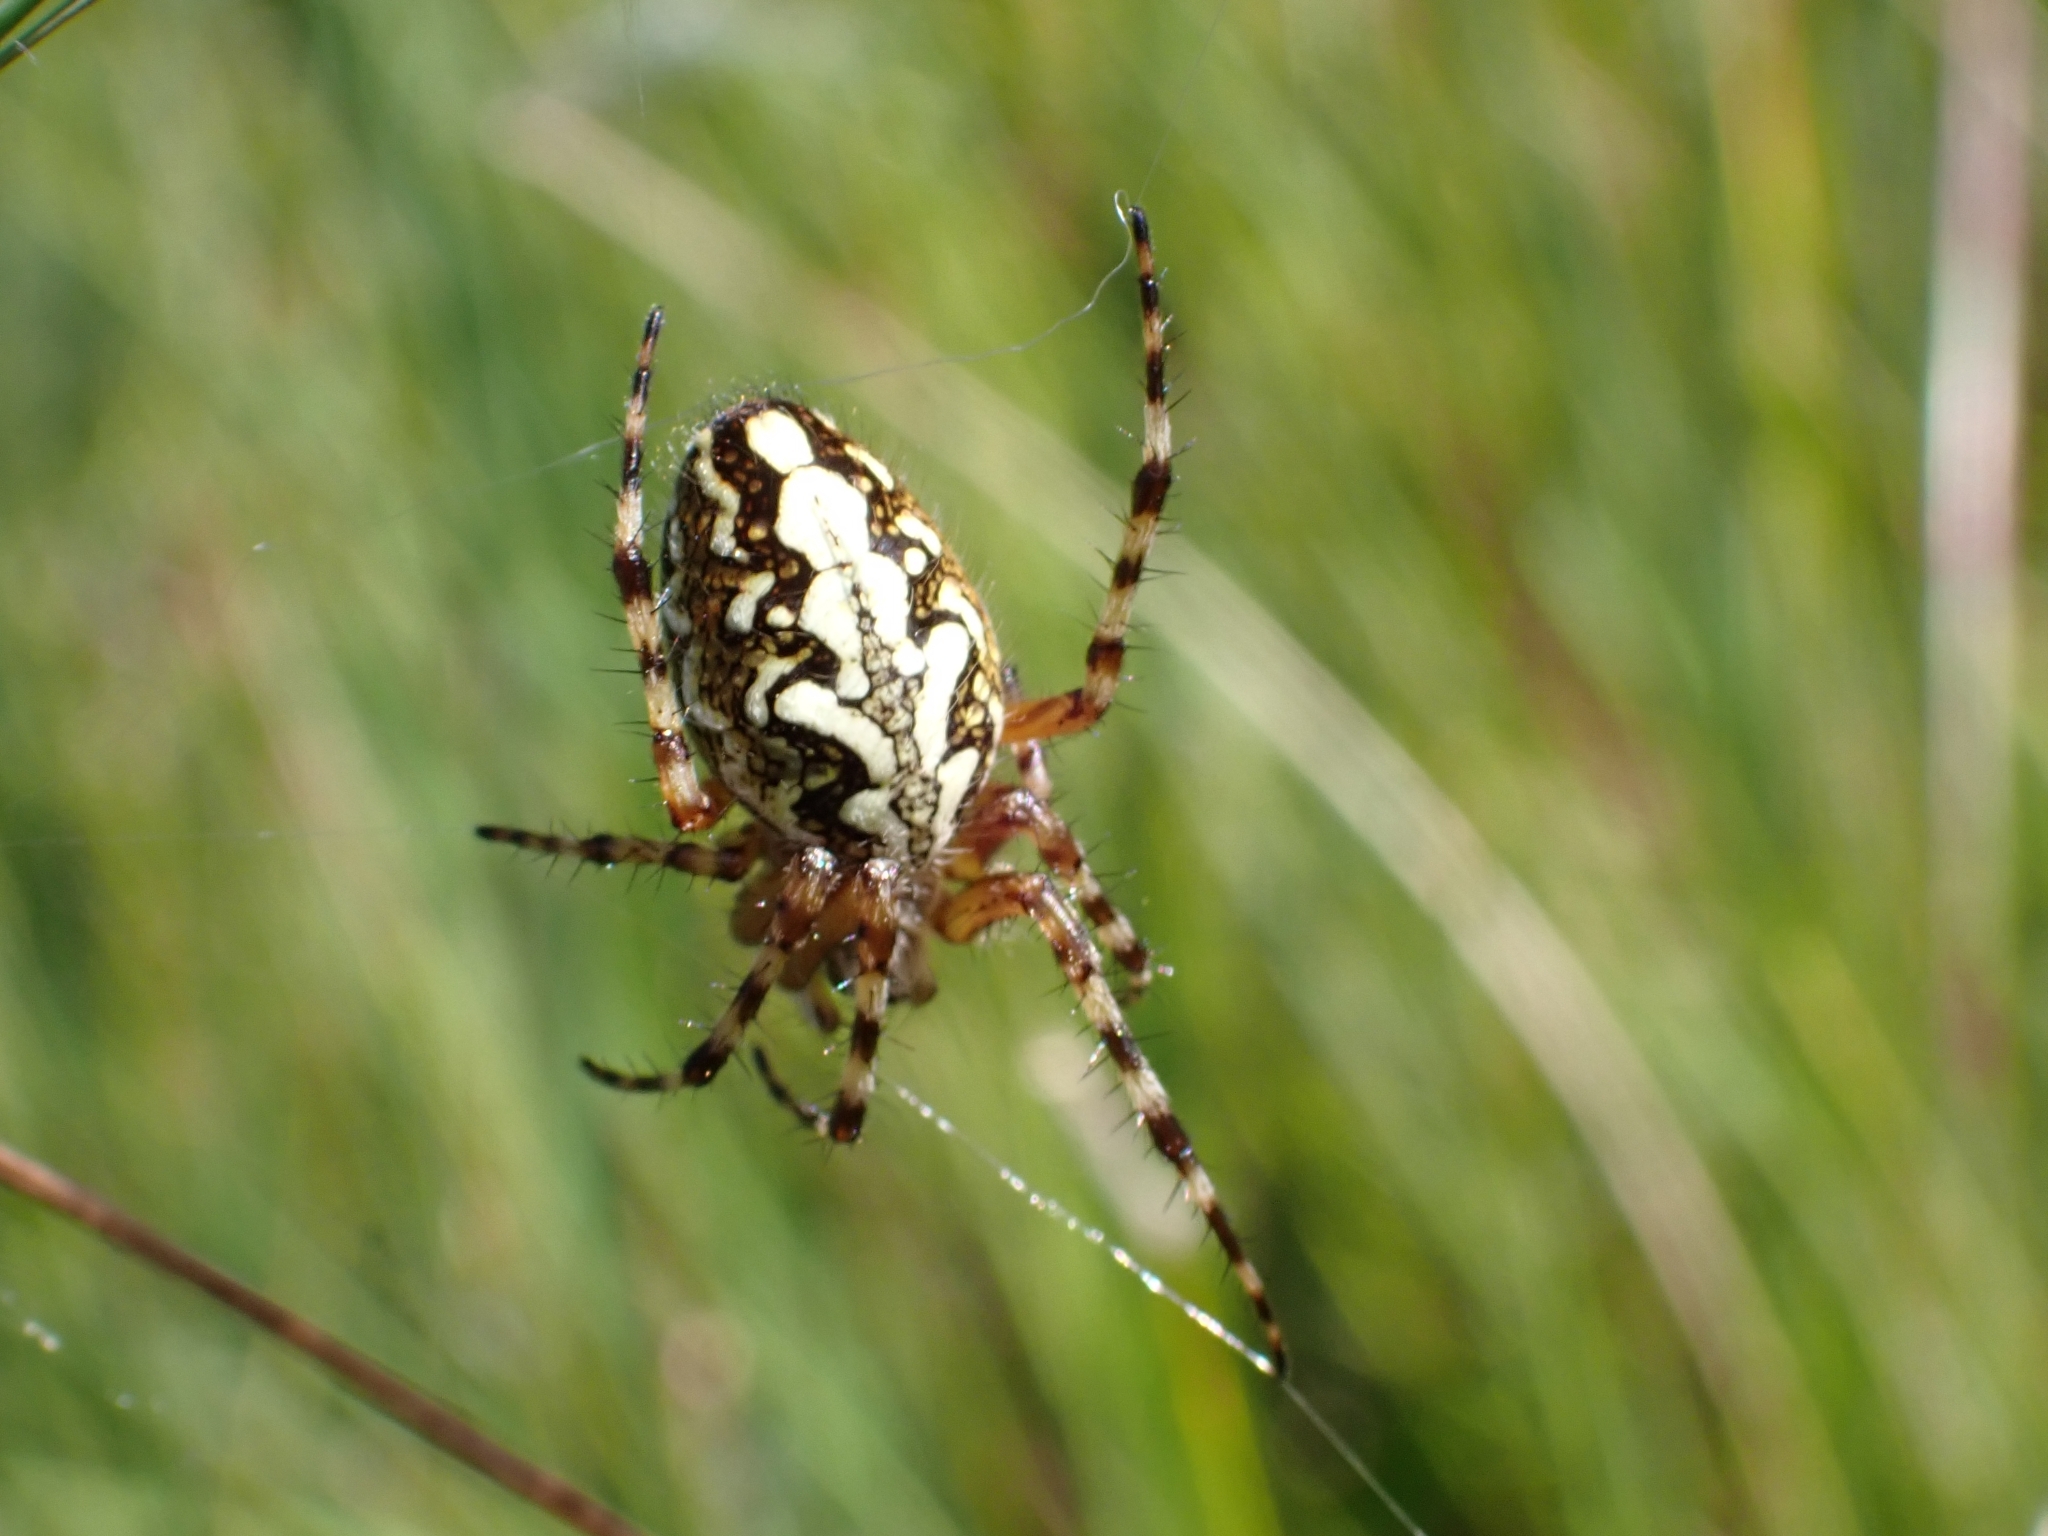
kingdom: Animalia
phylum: Arthropoda
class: Arachnida
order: Araneae
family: Araneidae
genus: Aculepeira
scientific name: Aculepeira ceropegia
